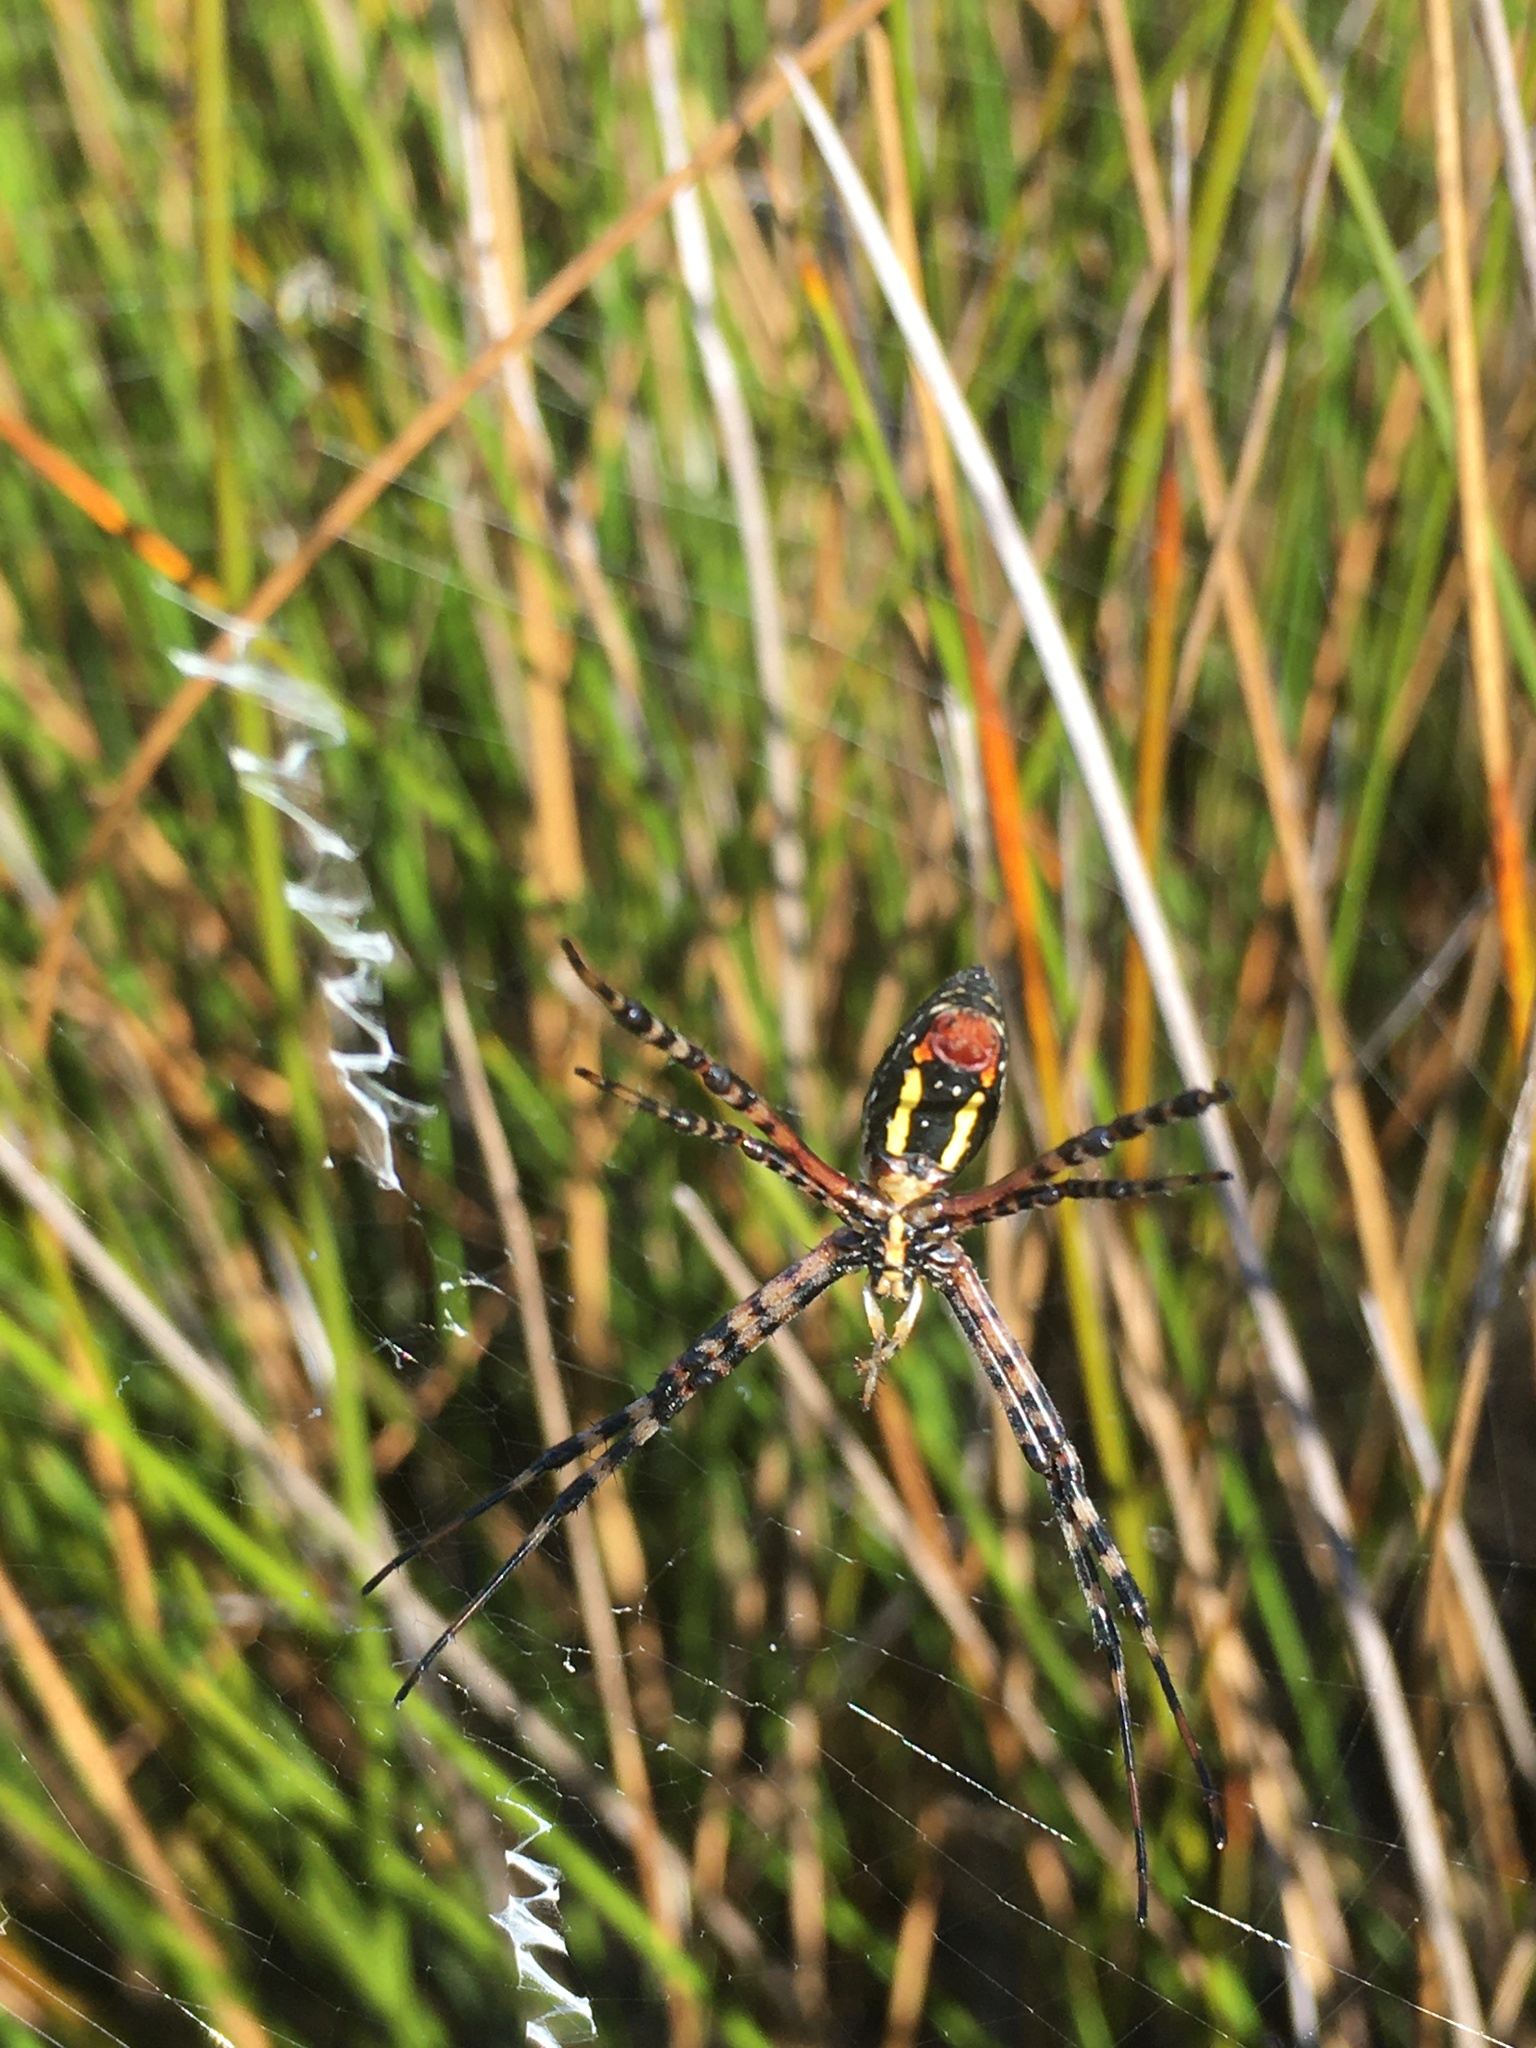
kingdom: Animalia
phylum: Arthropoda
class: Arachnida
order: Araneae
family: Araneidae
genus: Argiope
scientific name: Argiope trifasciata
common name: Banded garden spider
